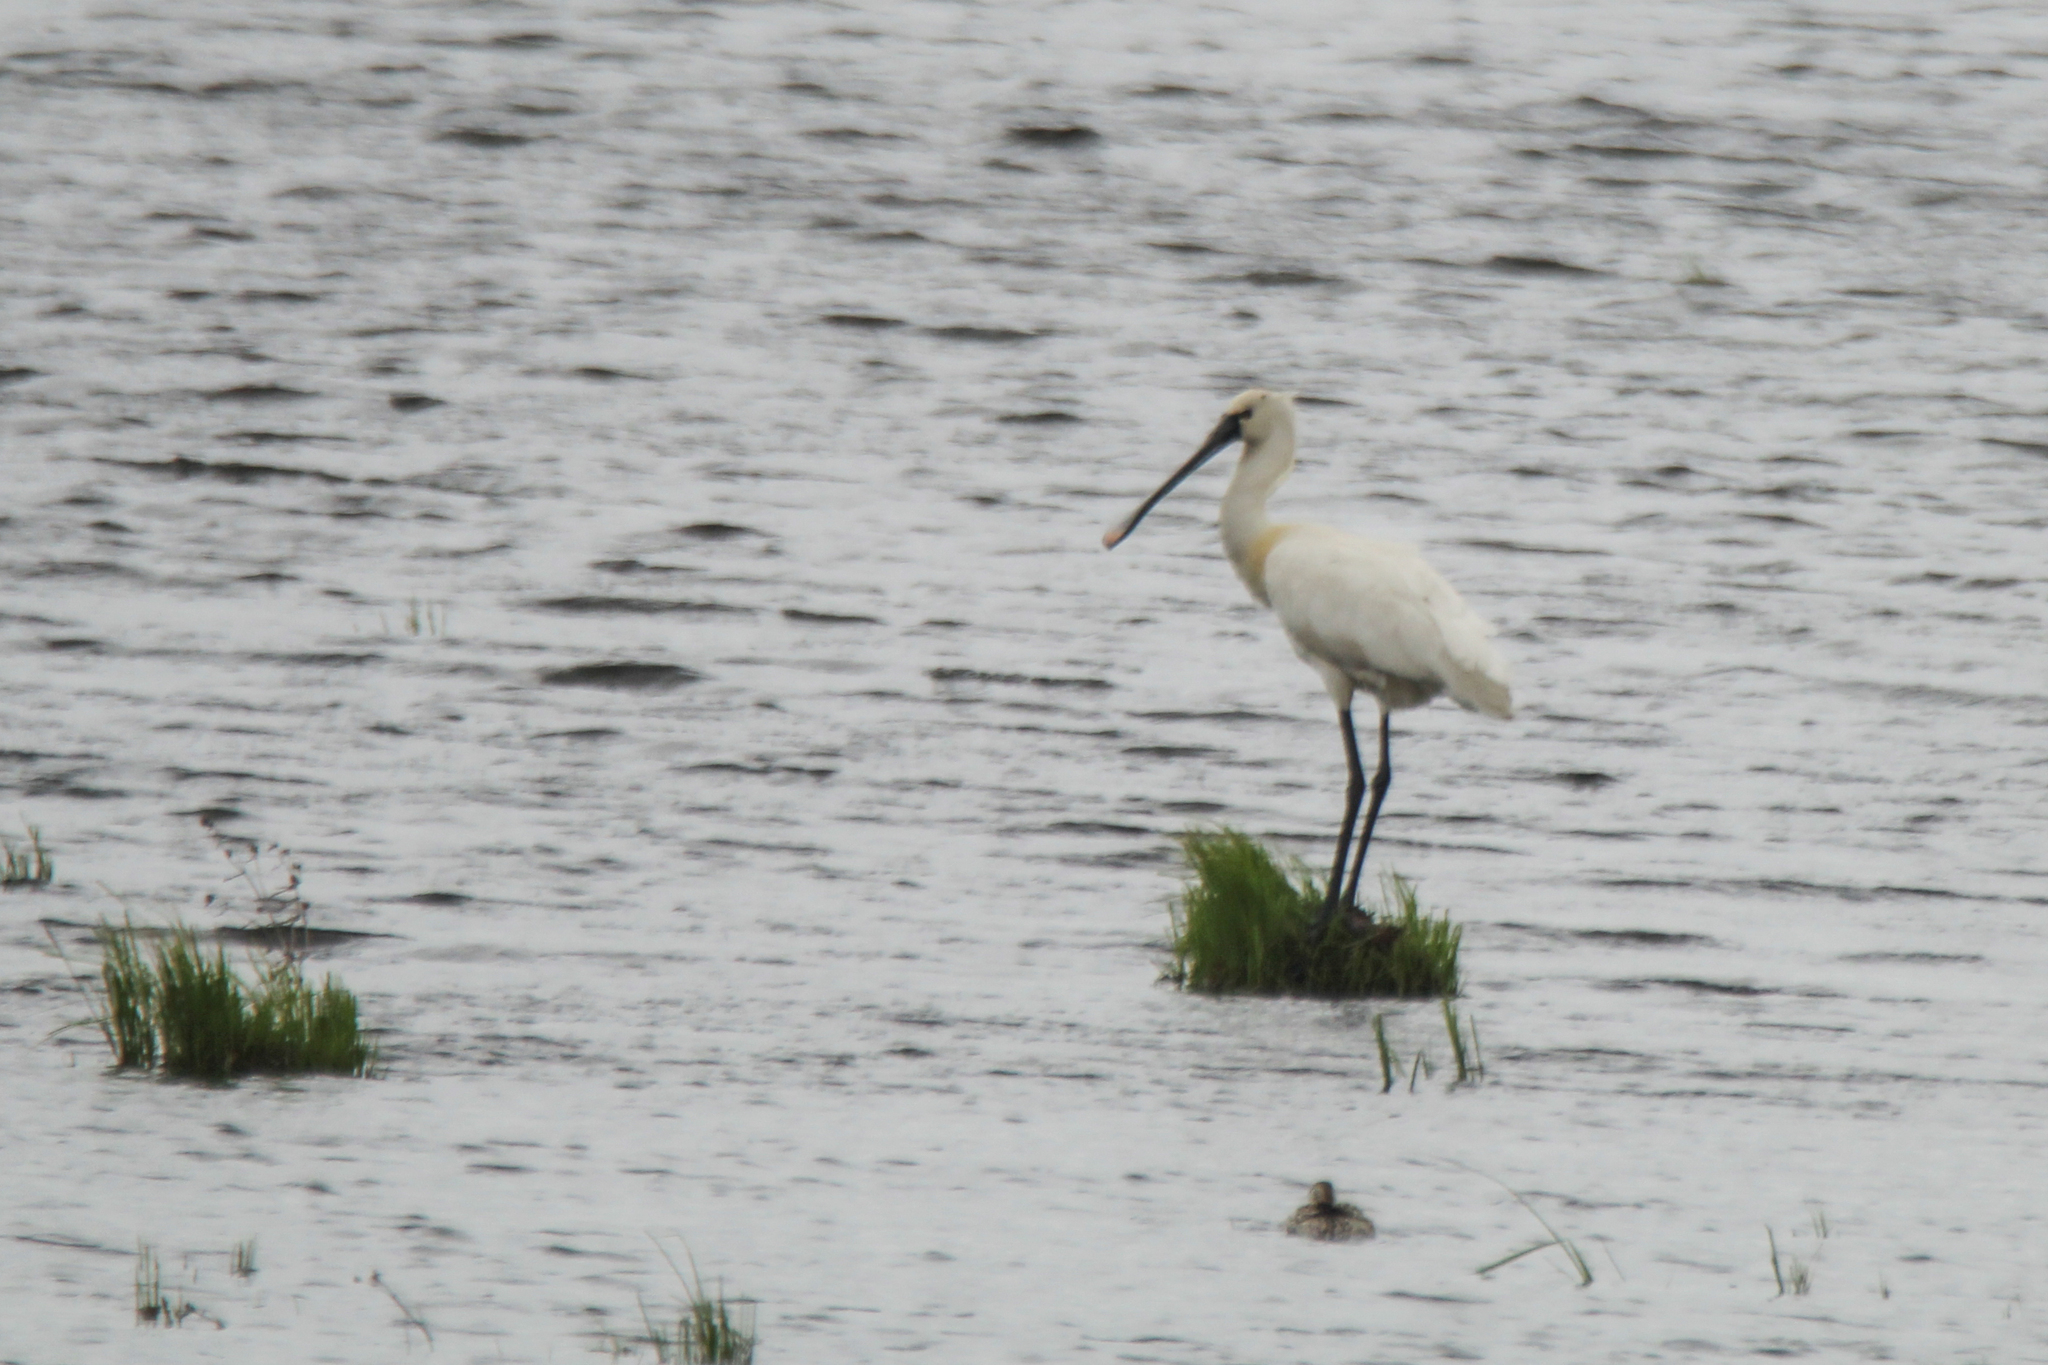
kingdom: Animalia
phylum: Chordata
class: Aves
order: Pelecaniformes
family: Threskiornithidae
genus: Platalea
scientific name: Platalea leucorodia
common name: Eurasian spoonbill
